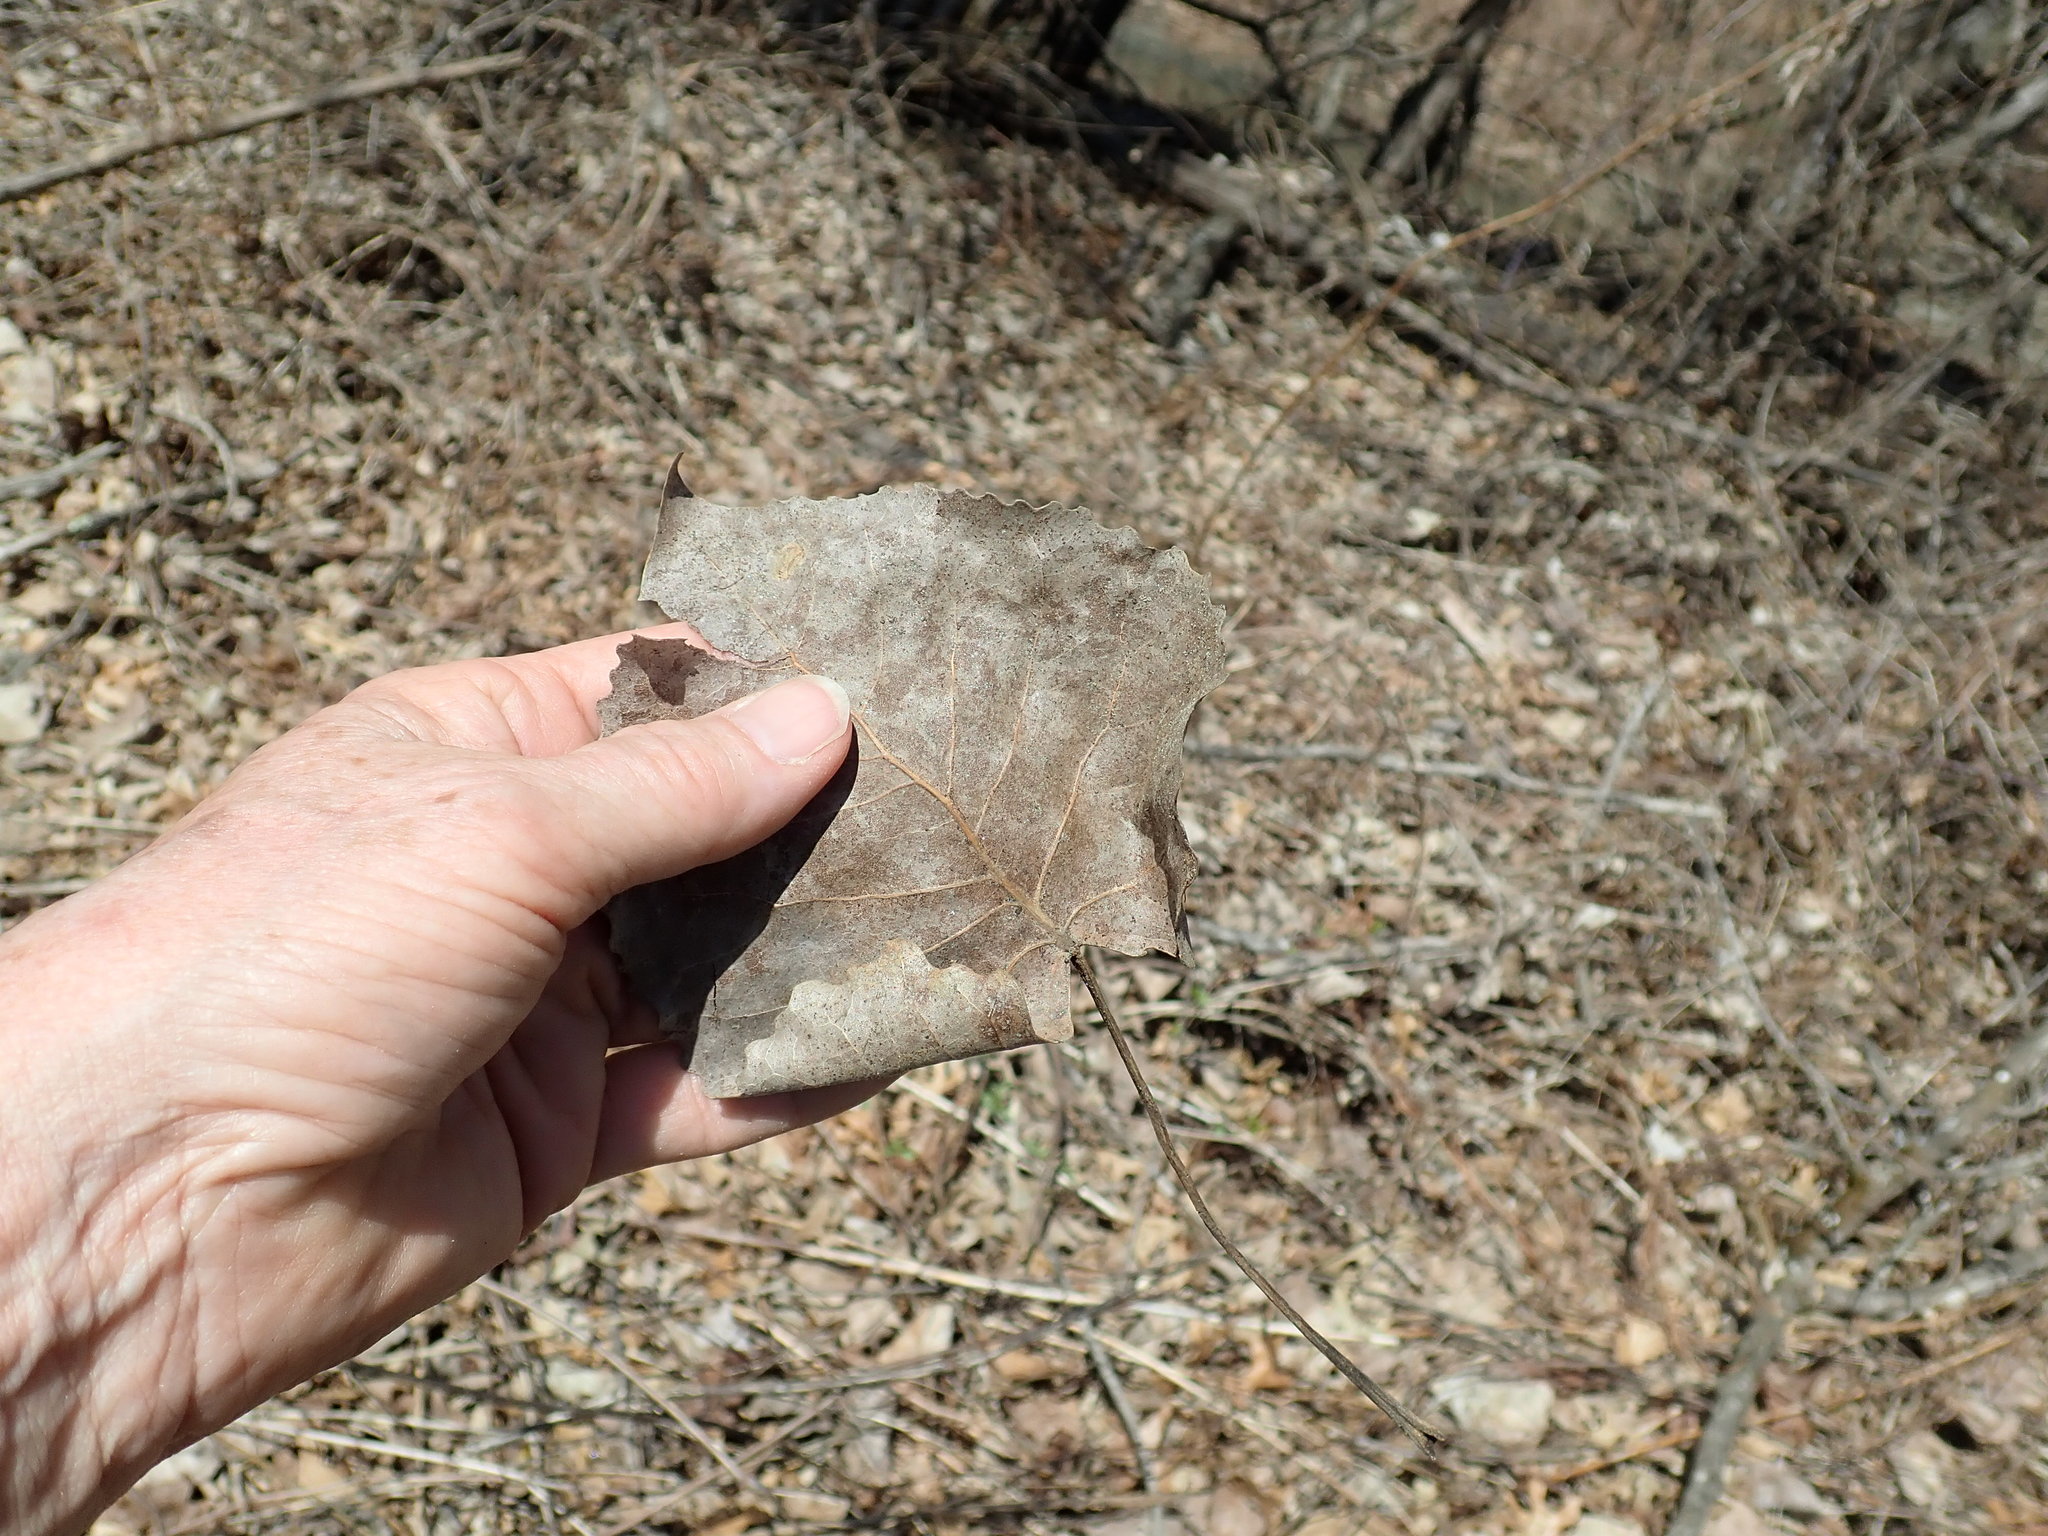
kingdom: Plantae
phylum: Tracheophyta
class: Magnoliopsida
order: Malpighiales
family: Salicaceae
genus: Populus
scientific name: Populus deltoides
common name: Eastern cottonwood
